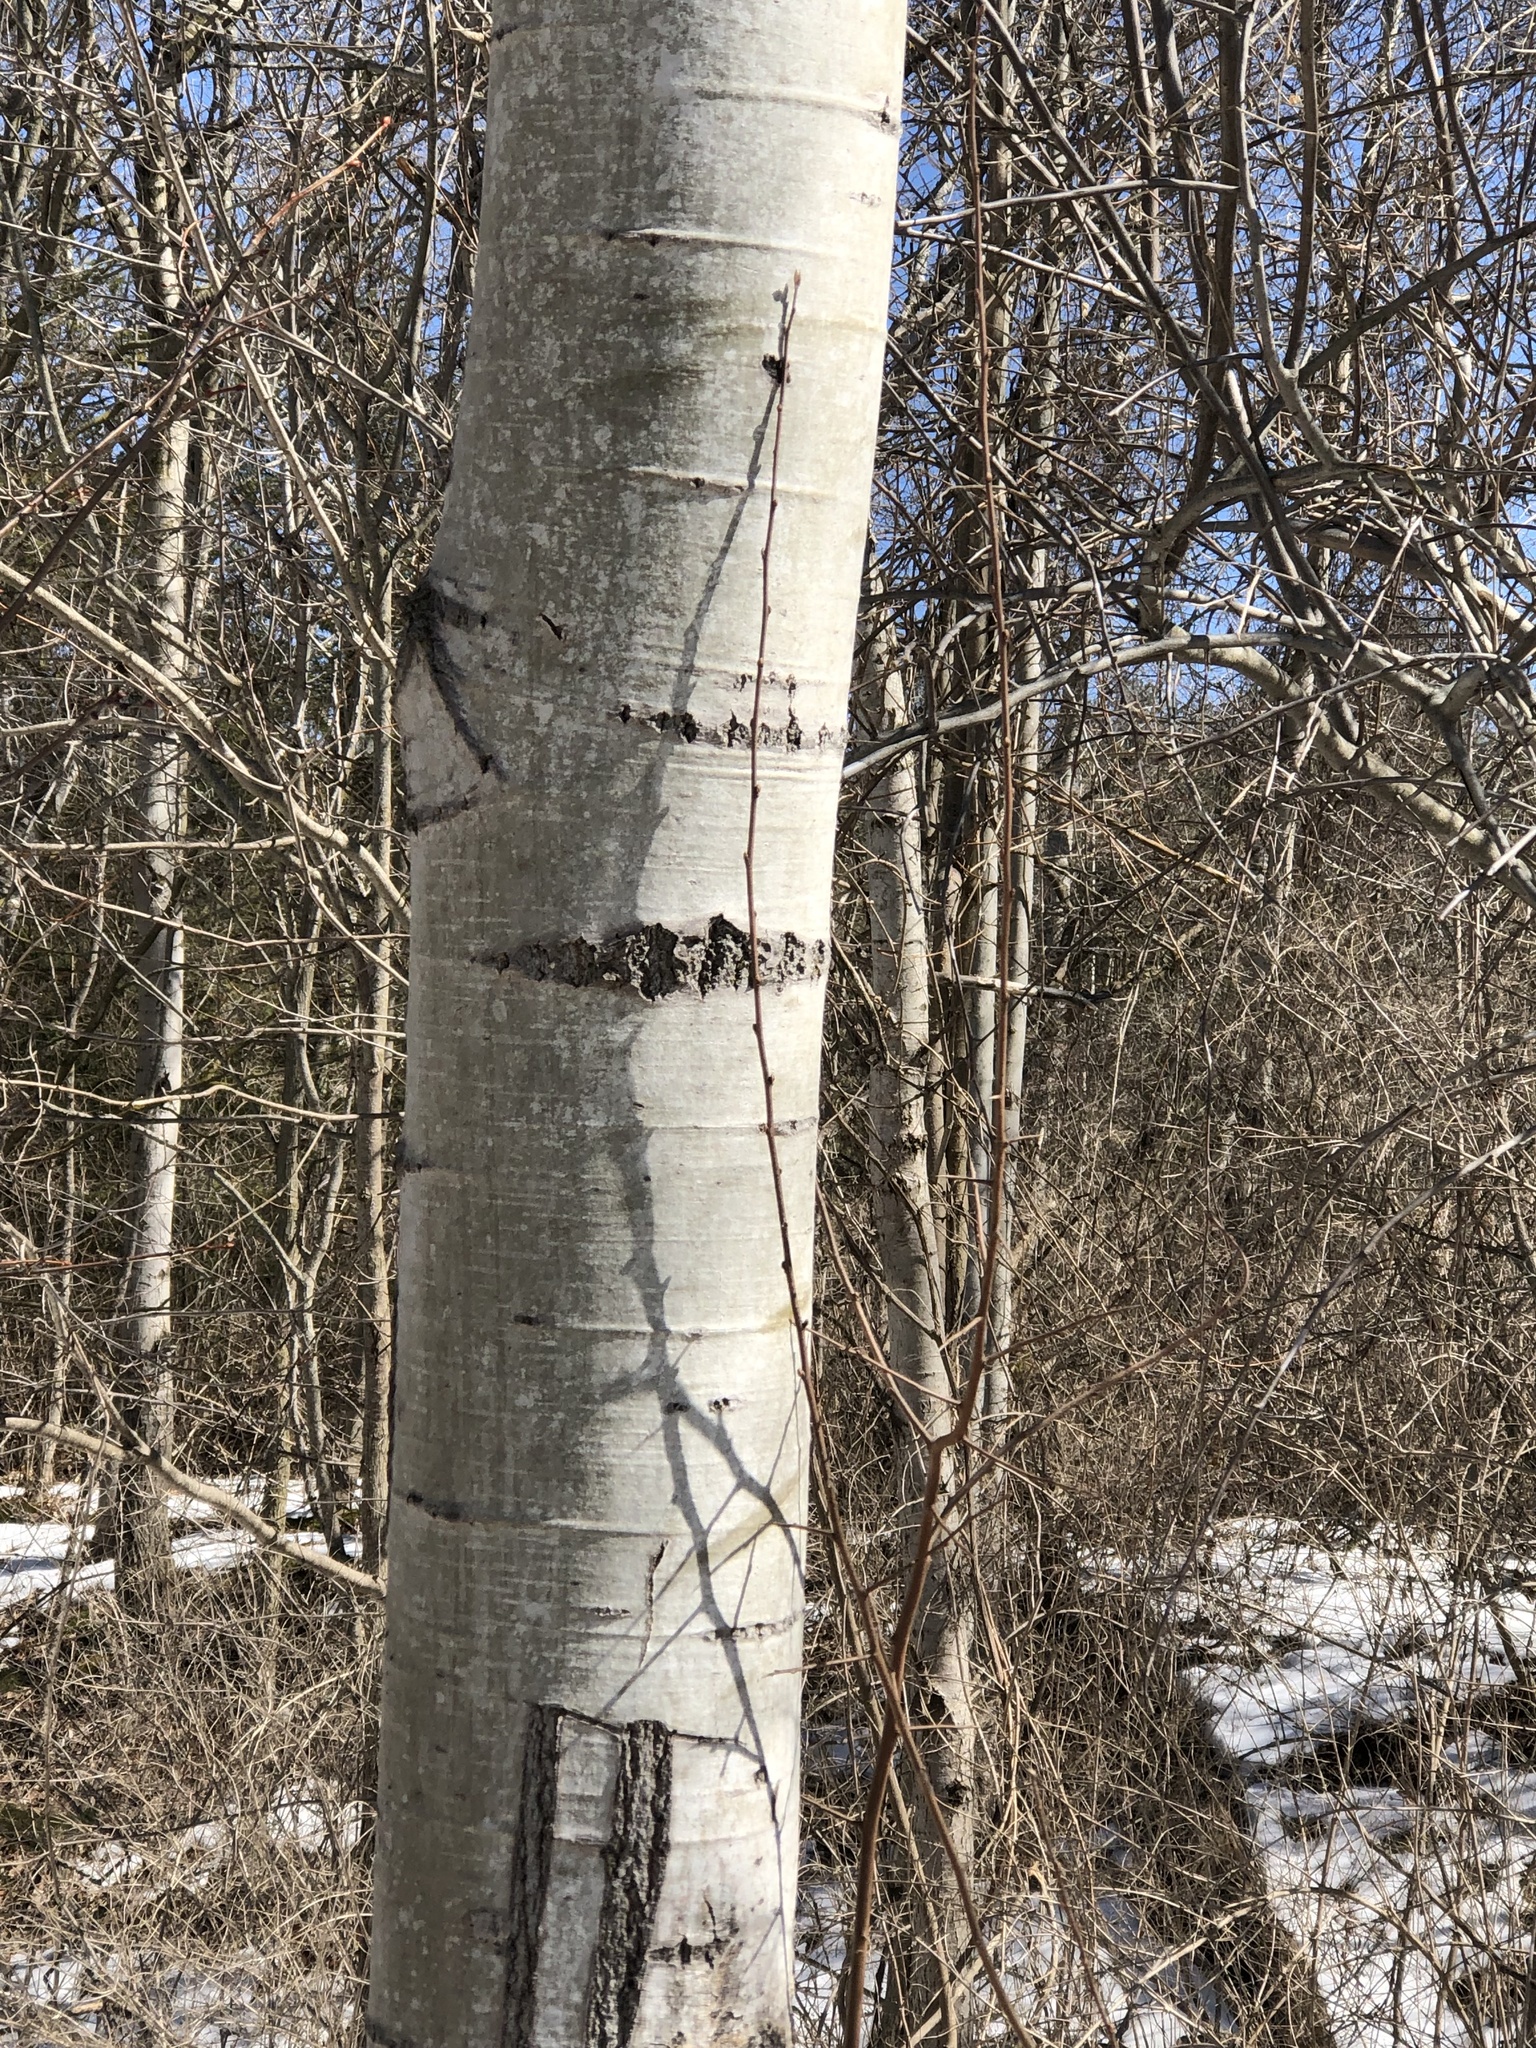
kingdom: Plantae
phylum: Tracheophyta
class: Magnoliopsida
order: Malpighiales
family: Salicaceae
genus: Populus
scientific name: Populus tremuloides
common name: Quaking aspen
